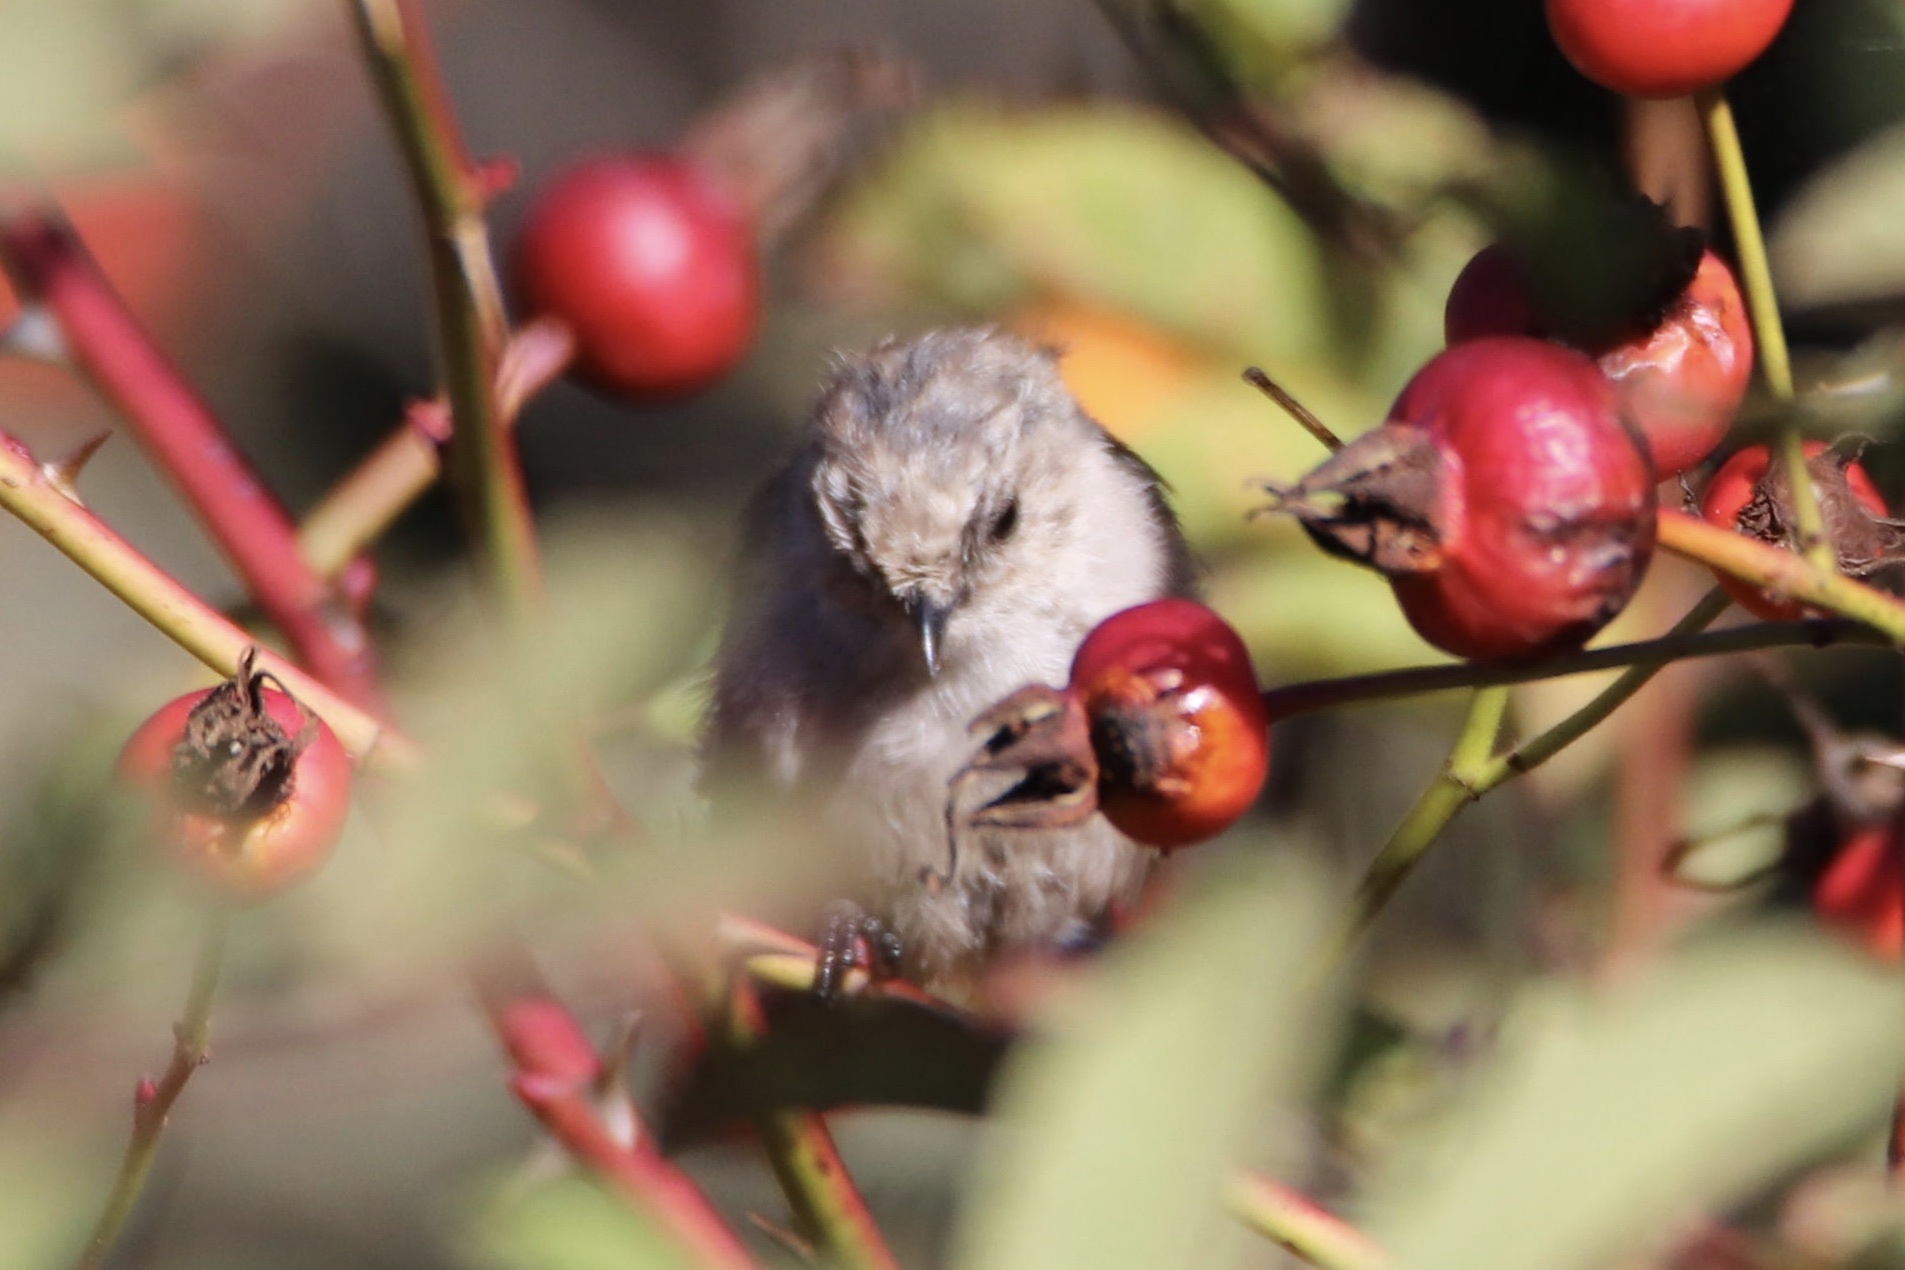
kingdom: Animalia
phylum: Chordata
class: Aves
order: Passeriformes
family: Aegithalidae
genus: Psaltriparus
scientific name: Psaltriparus minimus
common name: American bushtit
